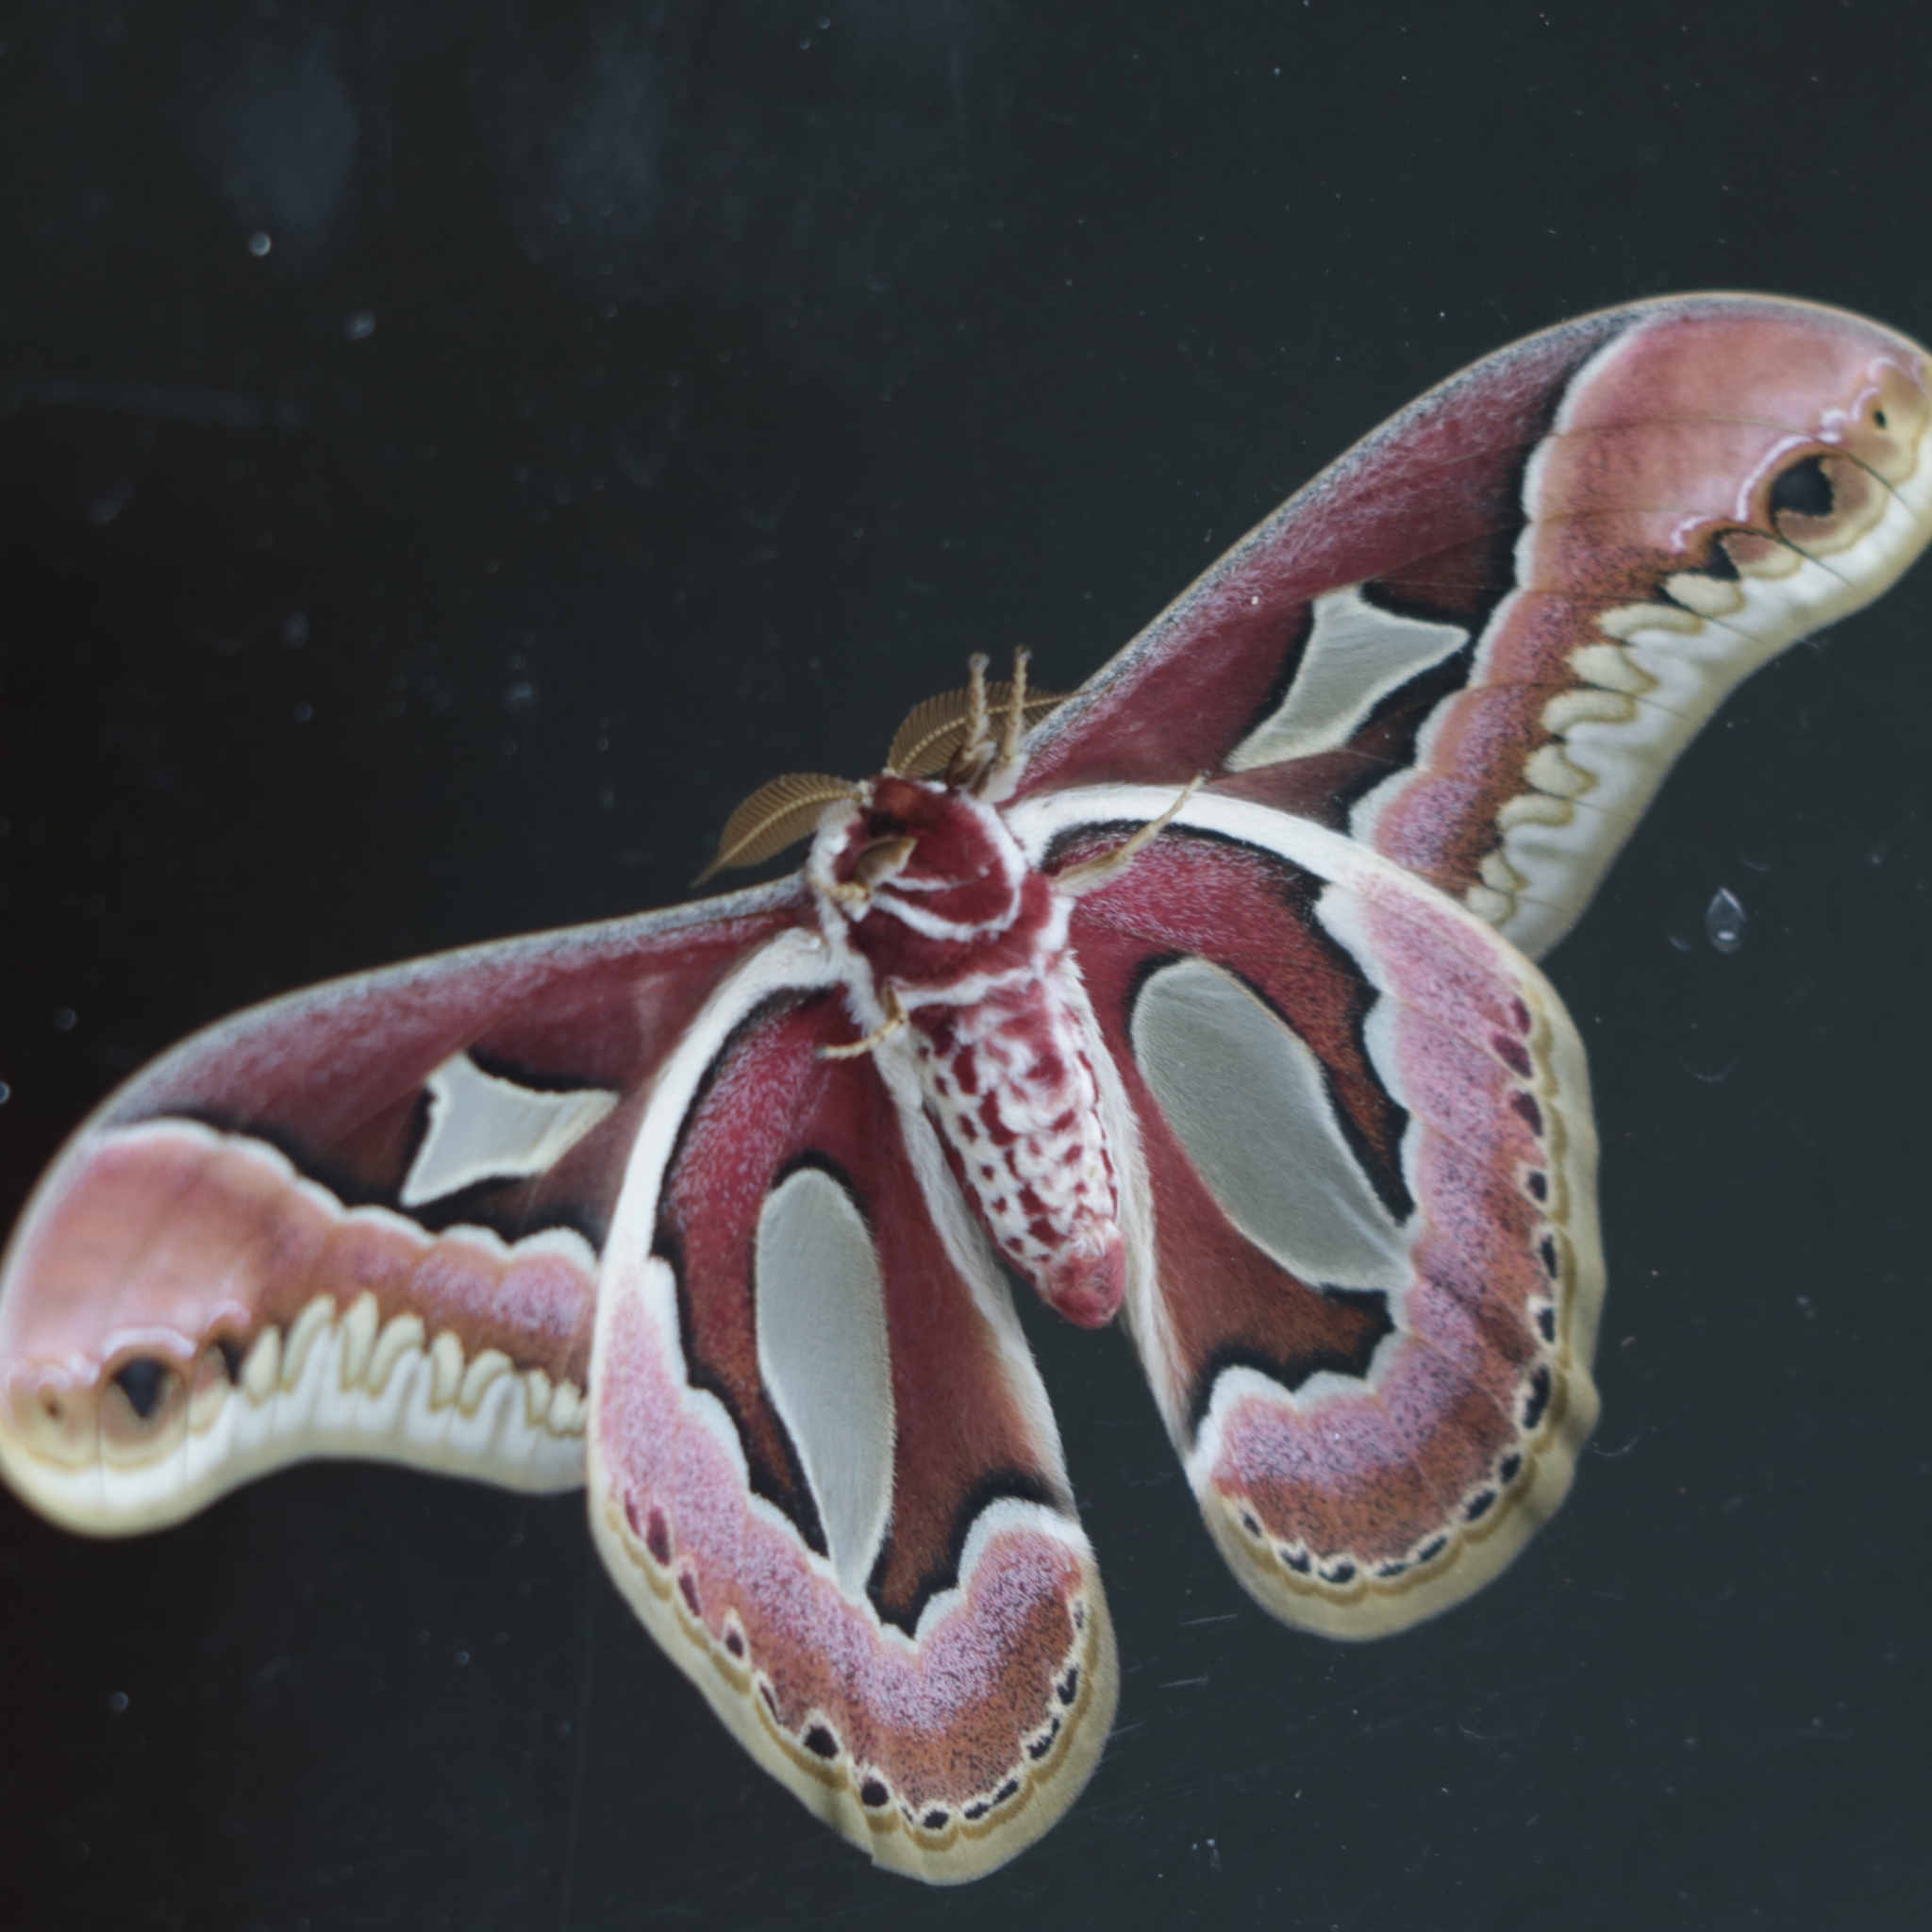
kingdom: Animalia
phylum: Arthropoda
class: Insecta
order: Lepidoptera
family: Saturniidae
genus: Rothschildia
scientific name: Rothschildia jacobaeae
